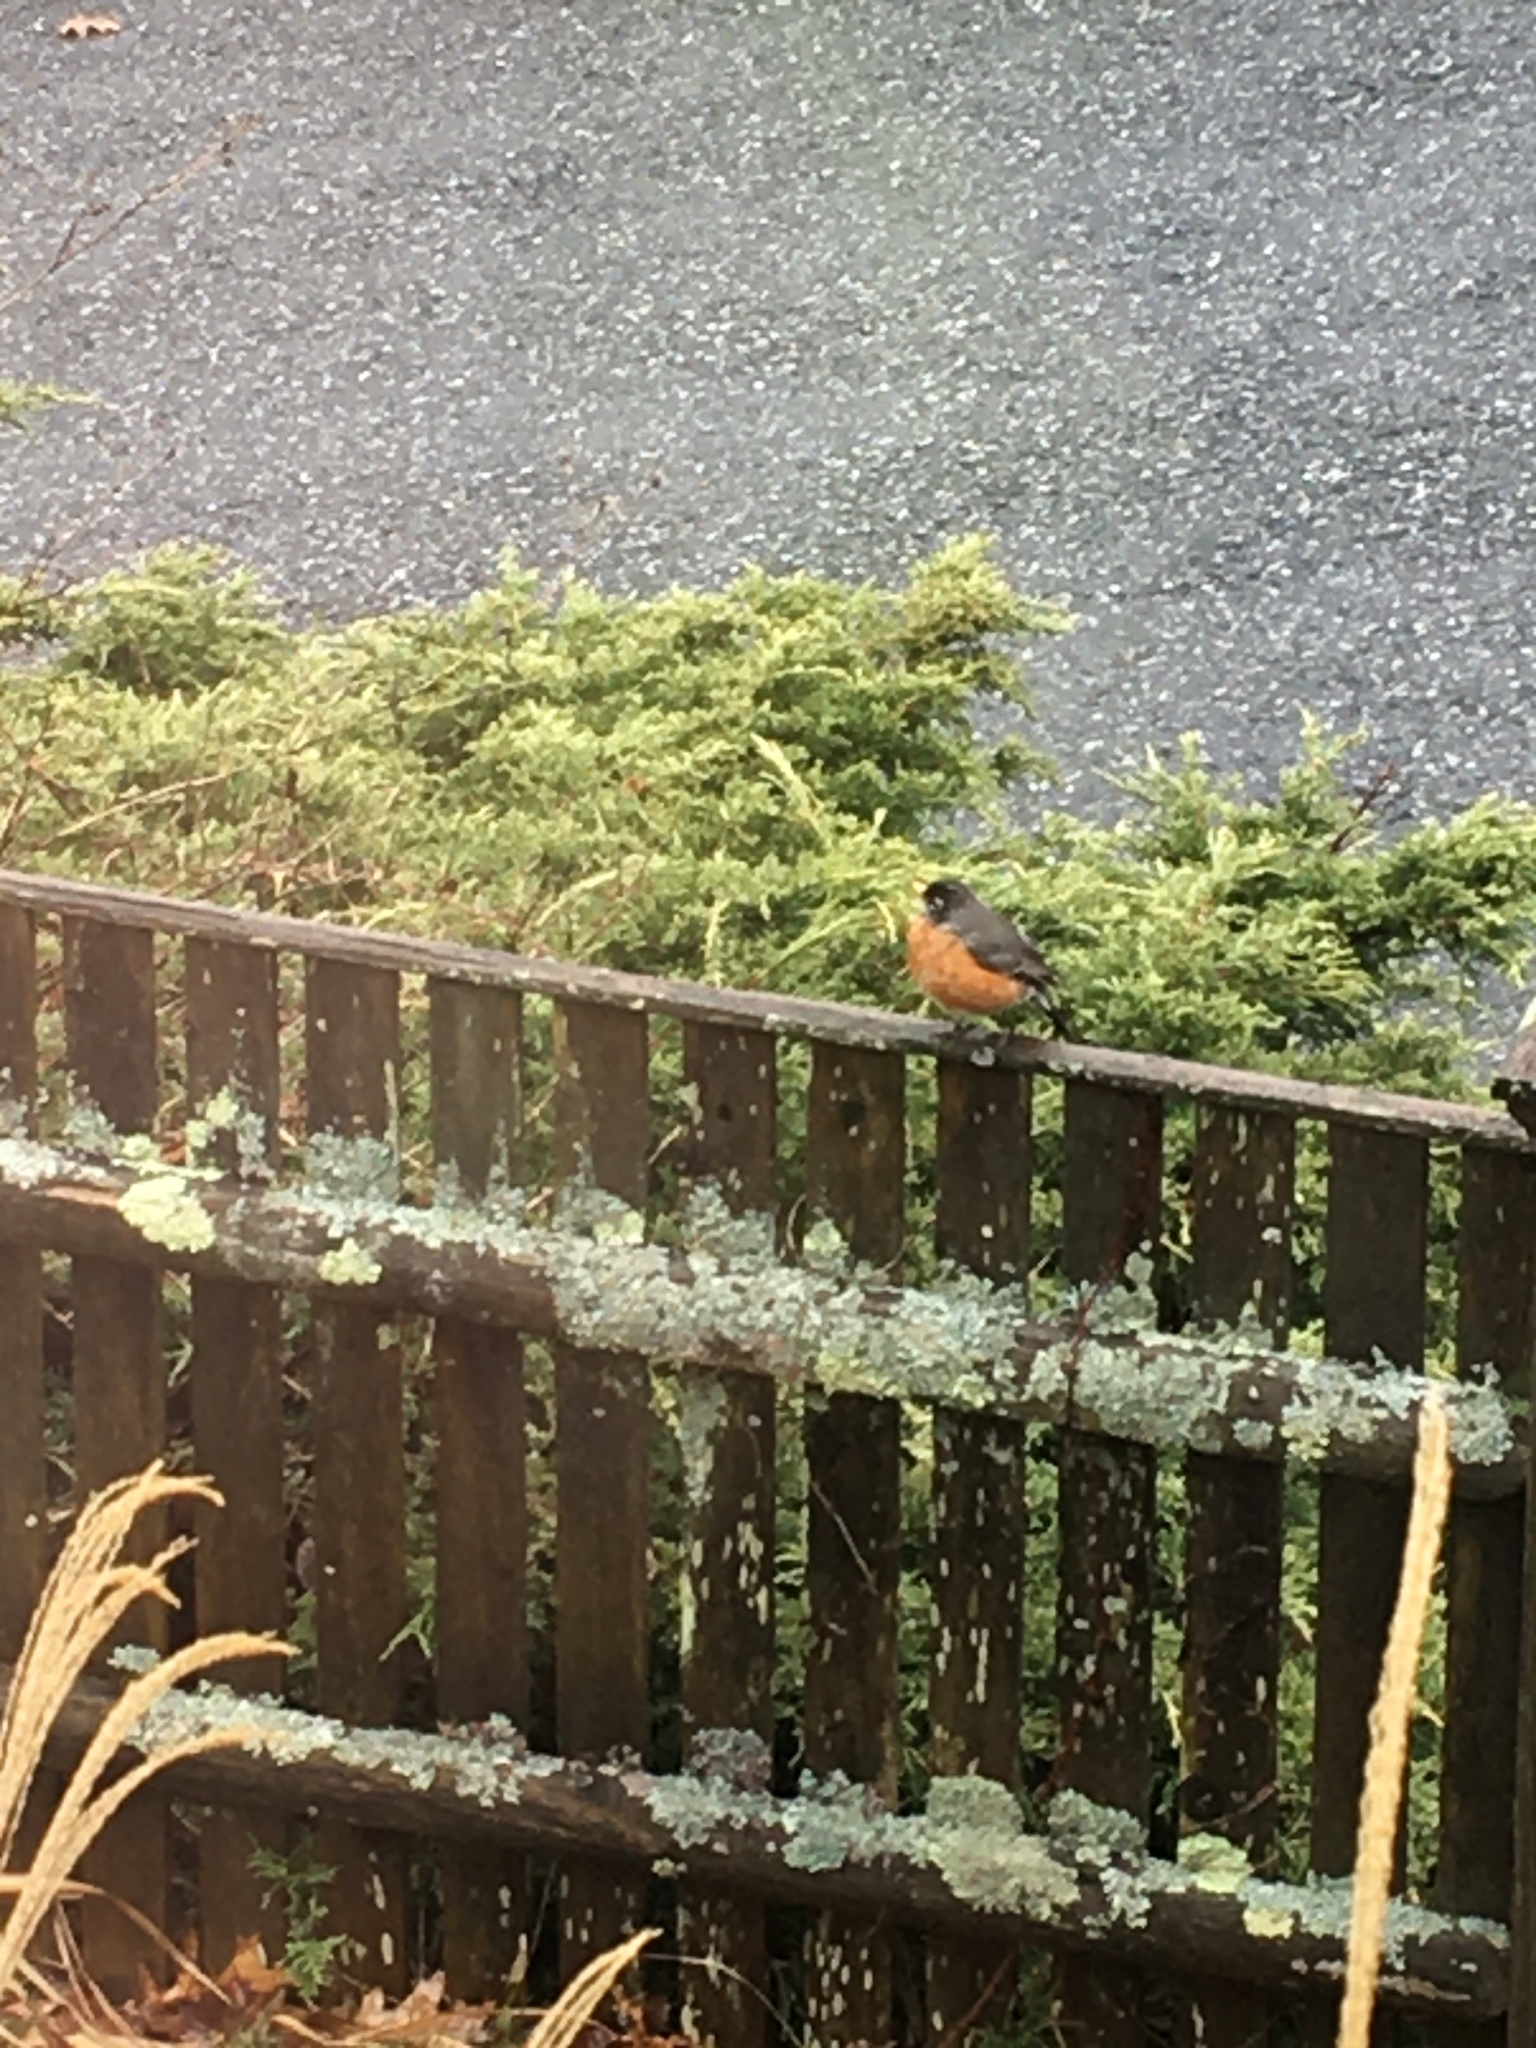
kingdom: Animalia
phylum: Chordata
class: Aves
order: Passeriformes
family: Turdidae
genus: Turdus
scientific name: Turdus migratorius
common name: American robin
